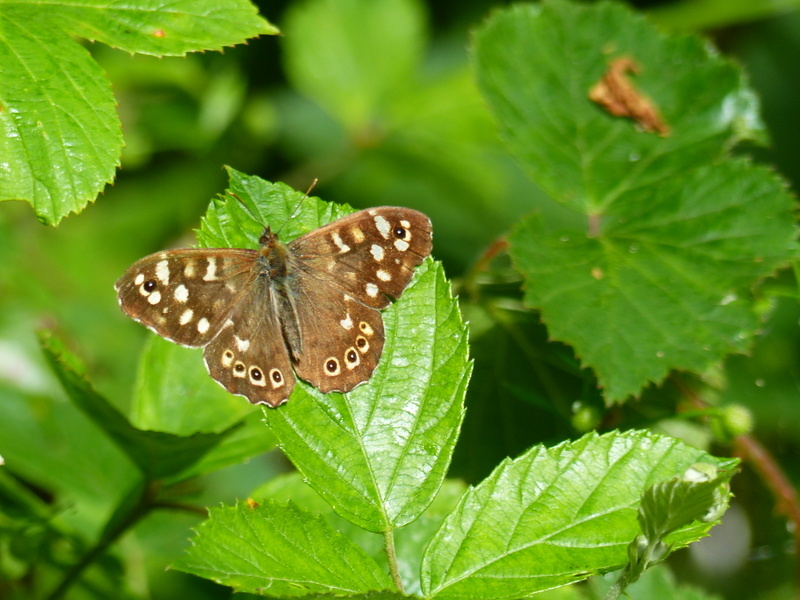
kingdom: Animalia
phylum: Arthropoda
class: Insecta
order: Lepidoptera
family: Nymphalidae
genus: Pararge
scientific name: Pararge aegeria
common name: Speckled wood
